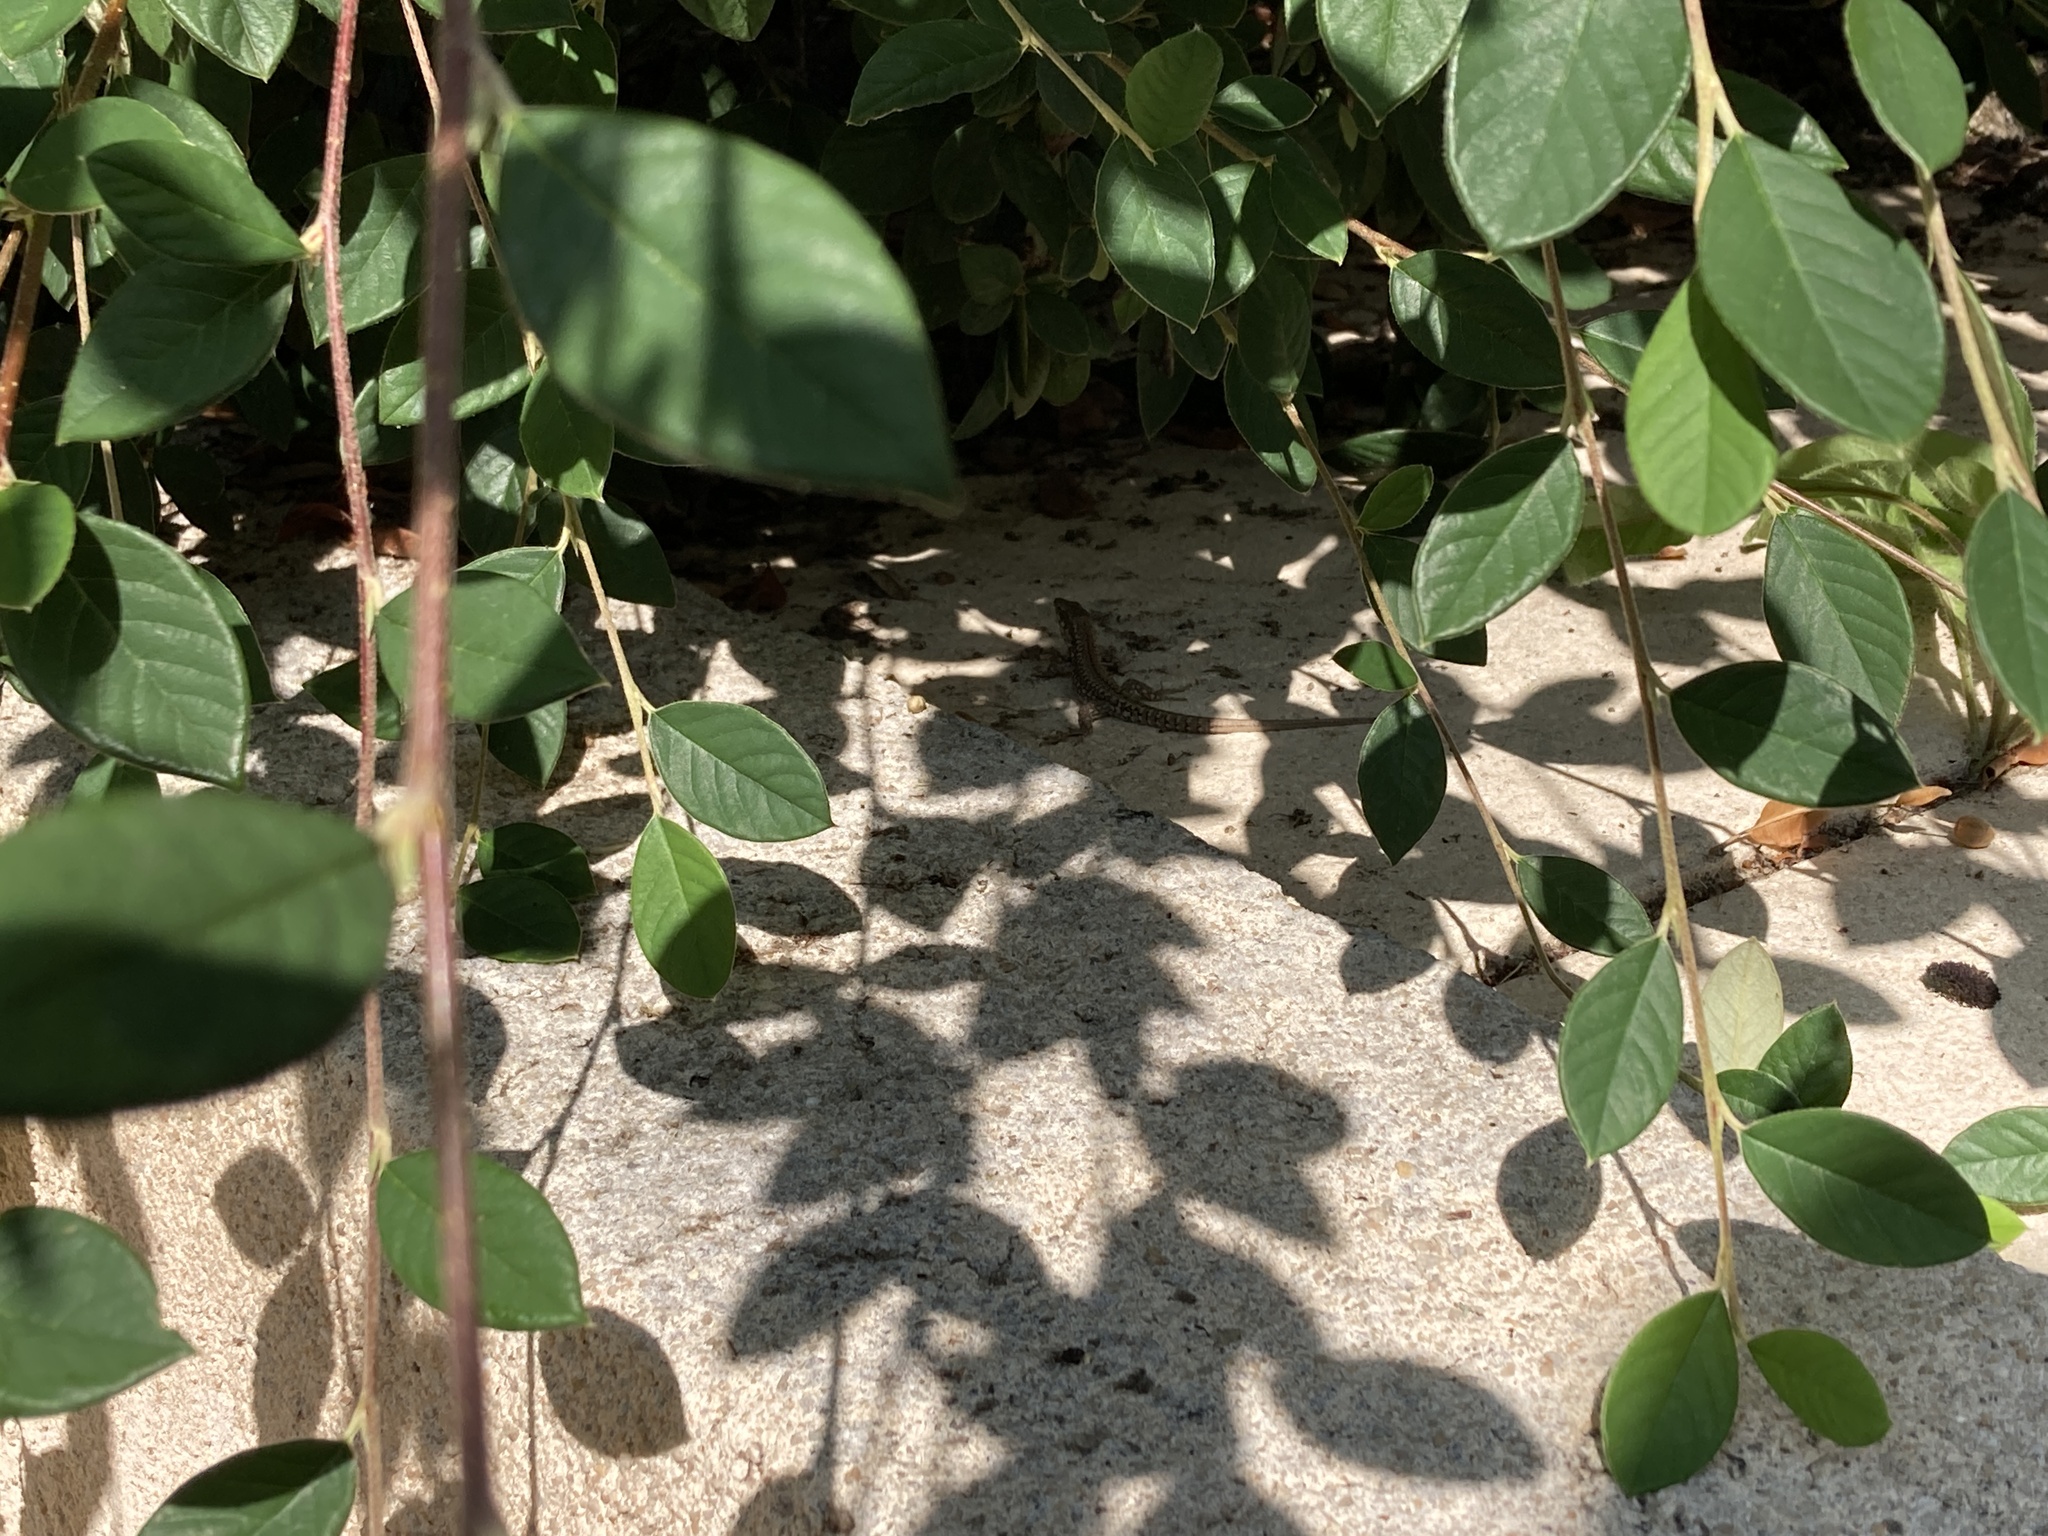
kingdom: Animalia
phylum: Chordata
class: Squamata
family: Lacertidae
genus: Podarcis
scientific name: Podarcis muralis
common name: Common wall lizard
